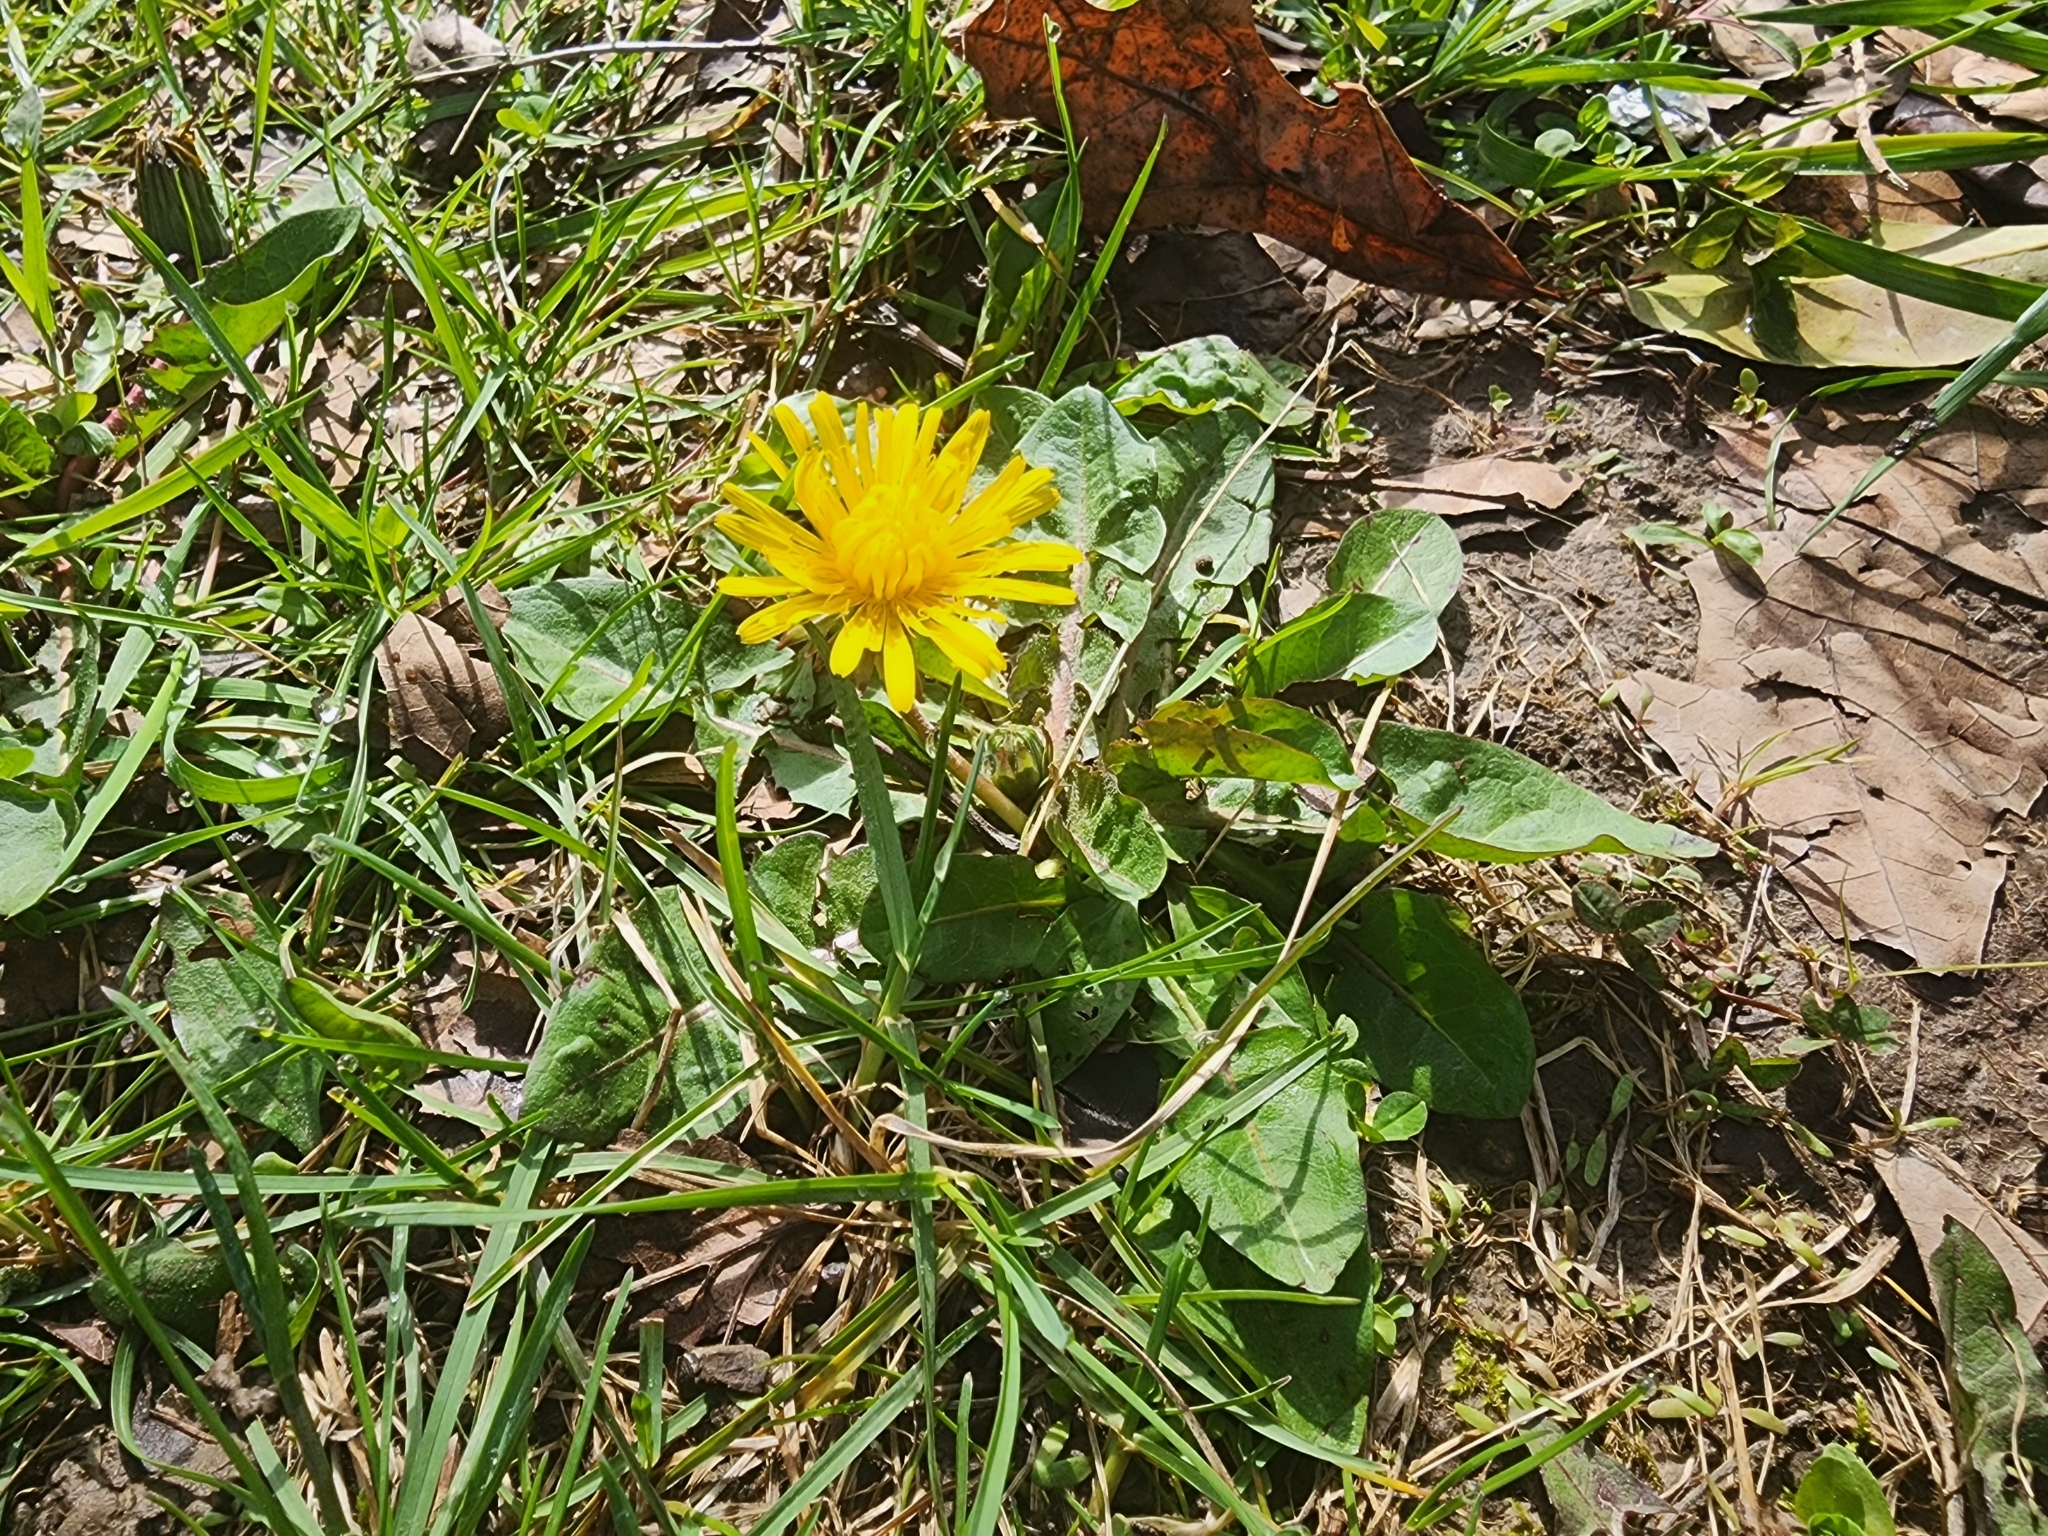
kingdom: Plantae
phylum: Tracheophyta
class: Magnoliopsida
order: Asterales
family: Asteraceae
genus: Taraxacum
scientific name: Taraxacum officinale
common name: Common dandelion
